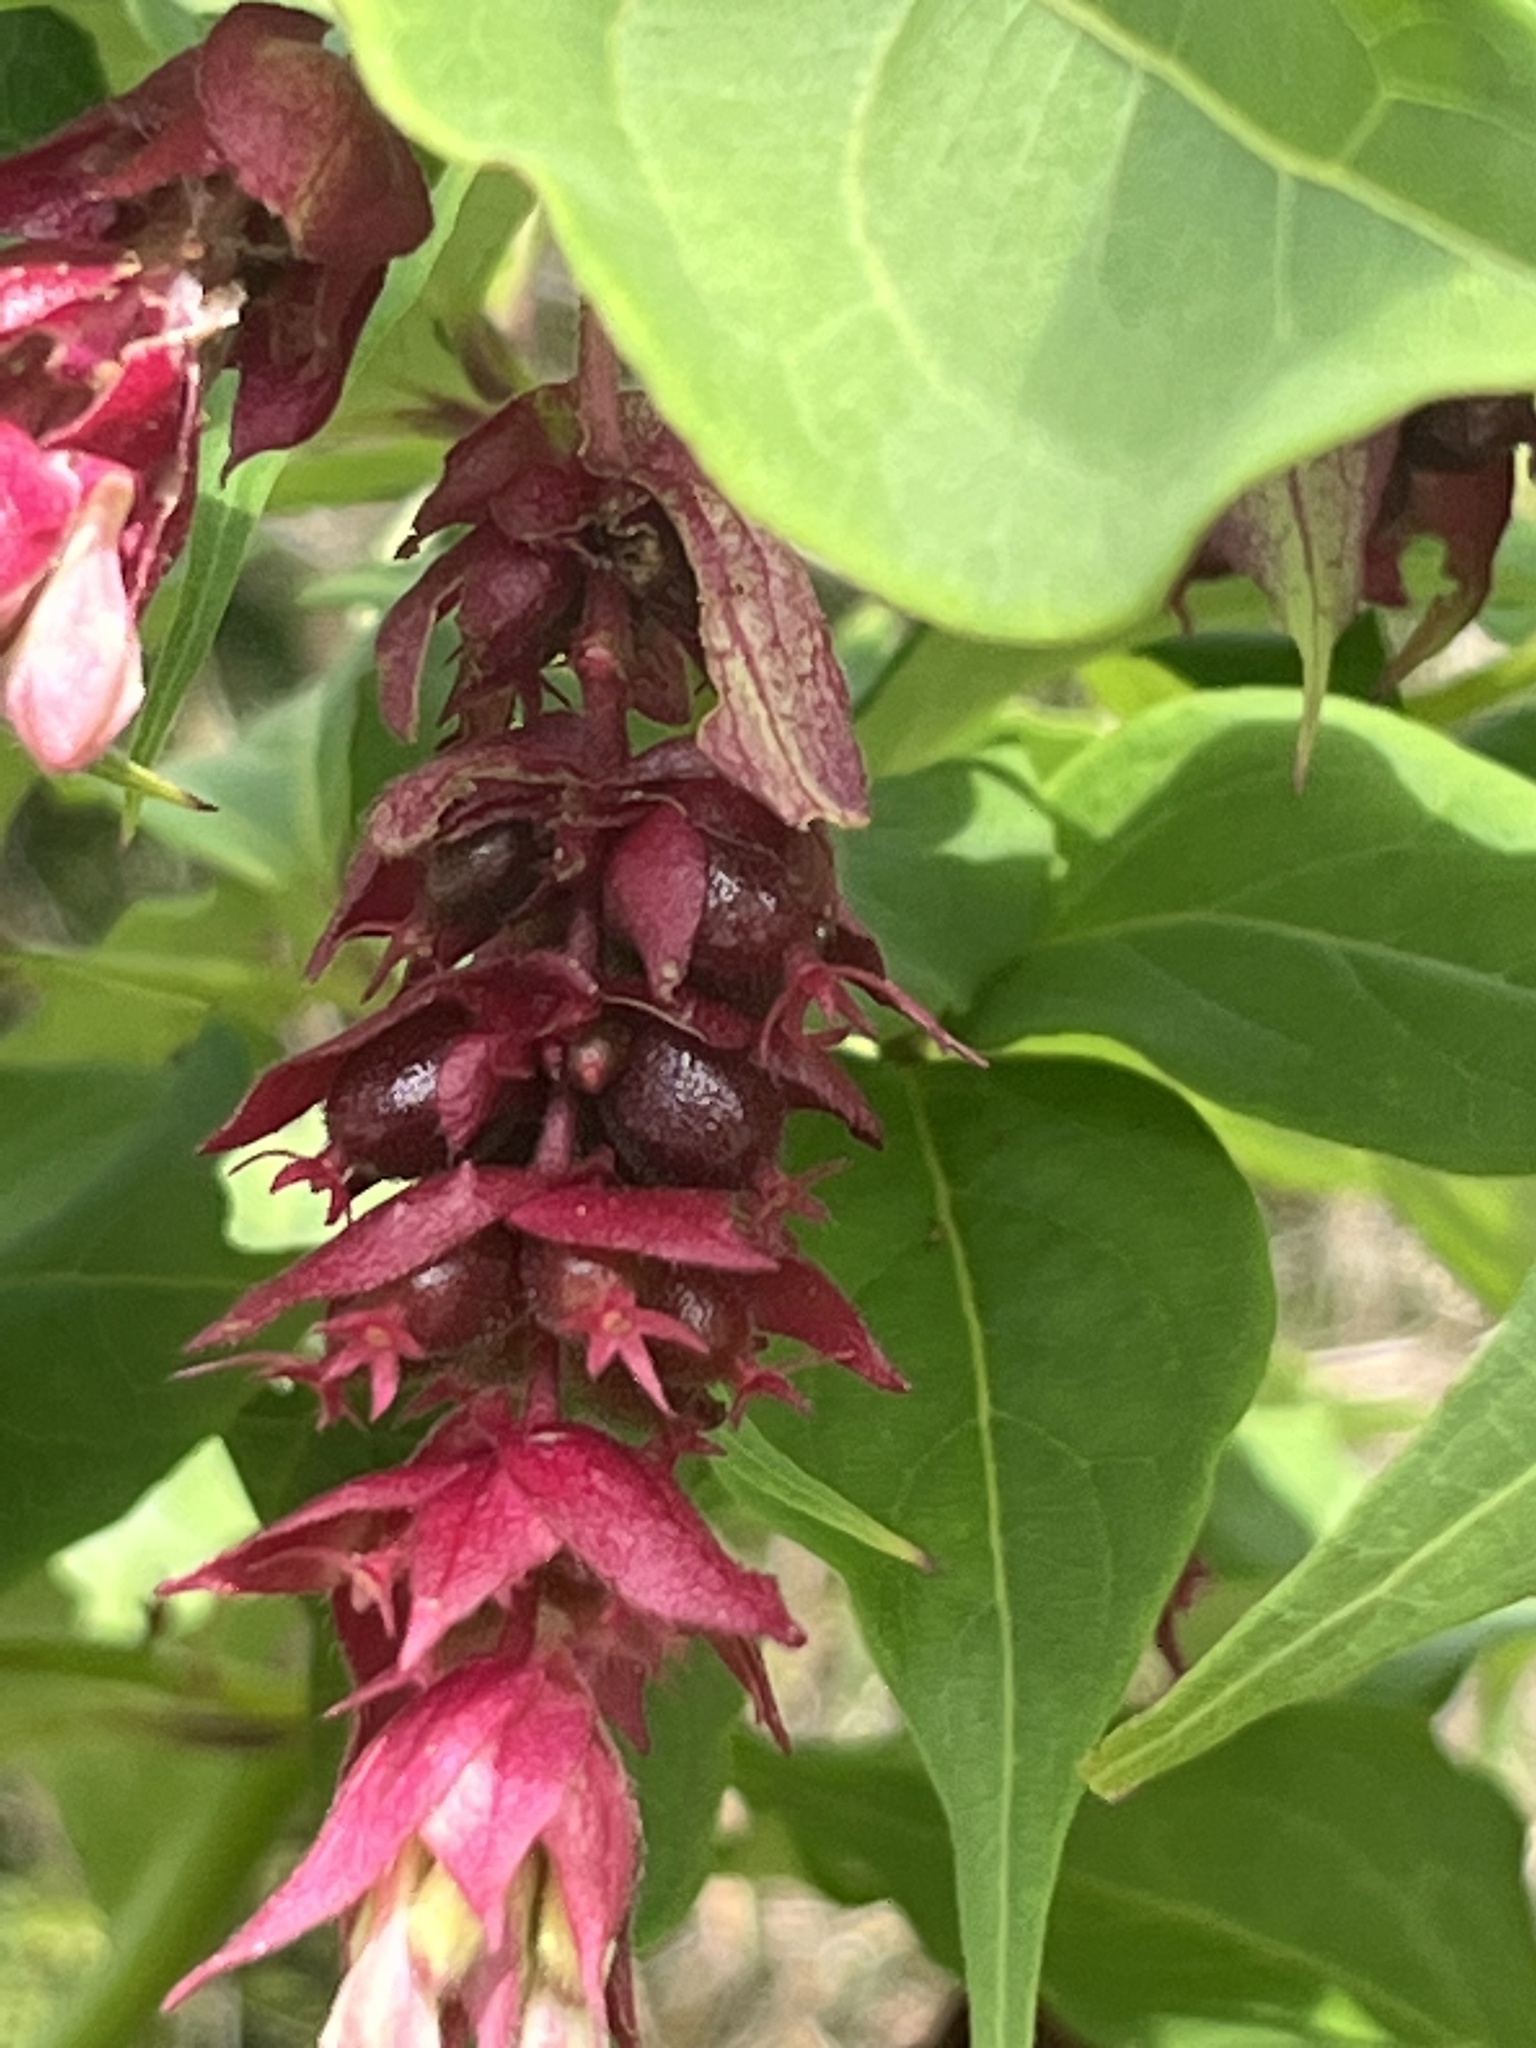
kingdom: Plantae
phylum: Tracheophyta
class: Magnoliopsida
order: Dipsacales
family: Caprifoliaceae
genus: Leycesteria
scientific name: Leycesteria formosa
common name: Himalayan honeysuckle
